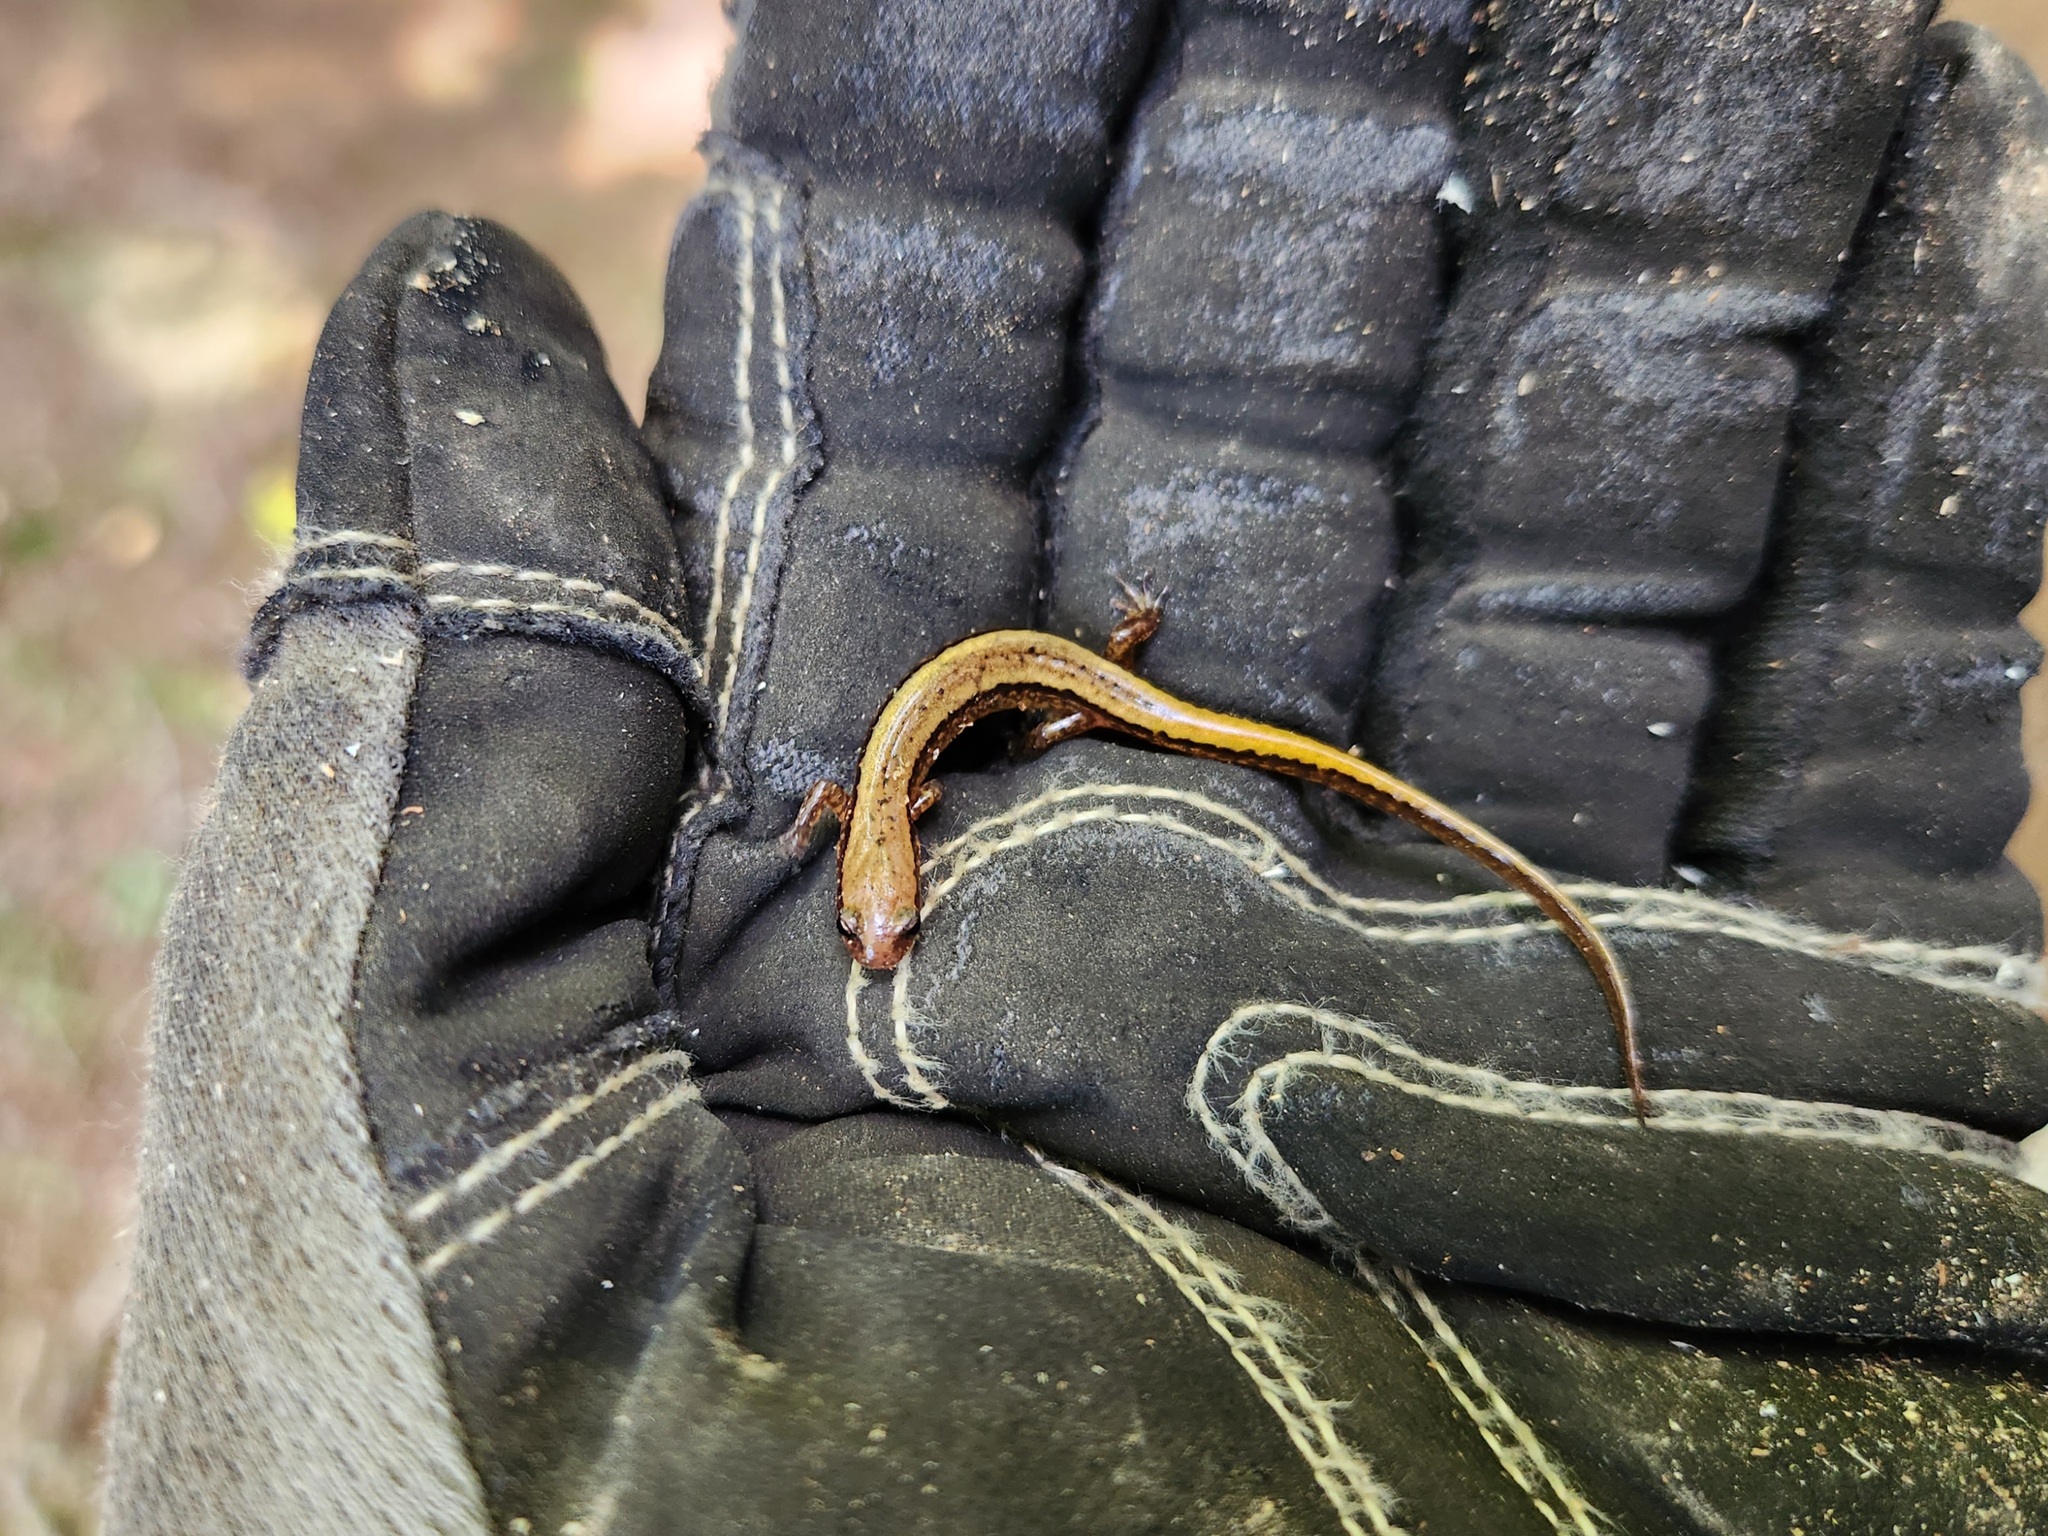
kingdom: Animalia
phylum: Chordata
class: Amphibia
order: Caudata
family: Plethodontidae
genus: Eurycea
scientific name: Eurycea cirrigera
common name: Southern two-lined salamander
